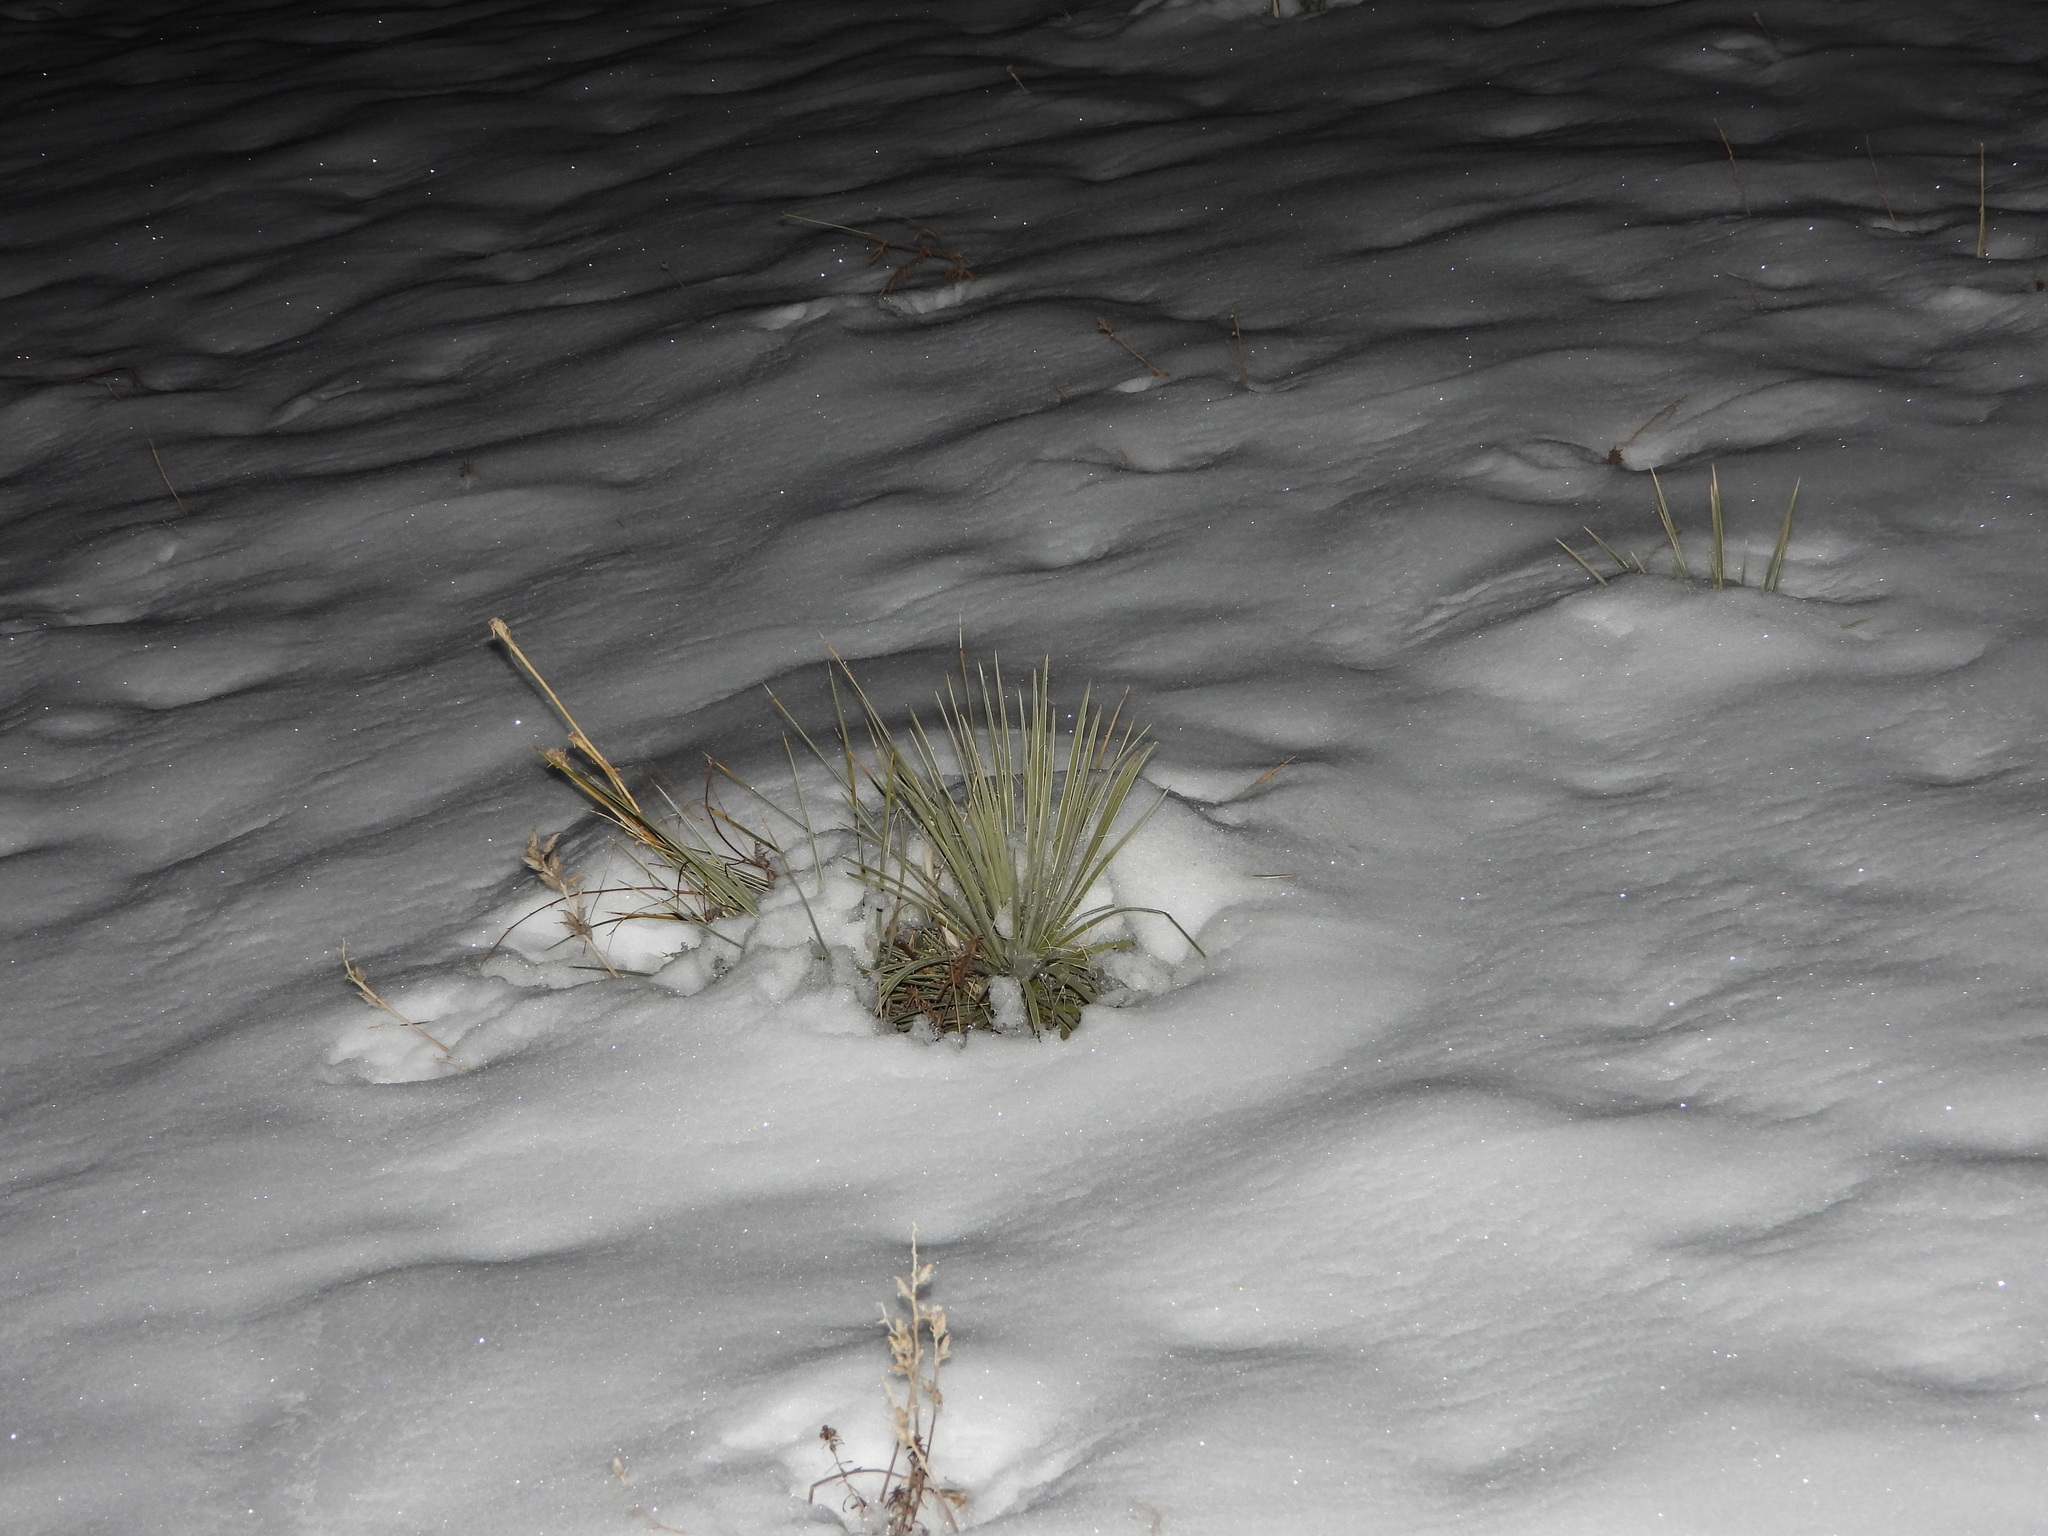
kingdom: Plantae
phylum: Tracheophyta
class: Liliopsida
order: Asparagales
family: Asparagaceae
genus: Yucca
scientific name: Yucca glauca
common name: Great plains yucca
